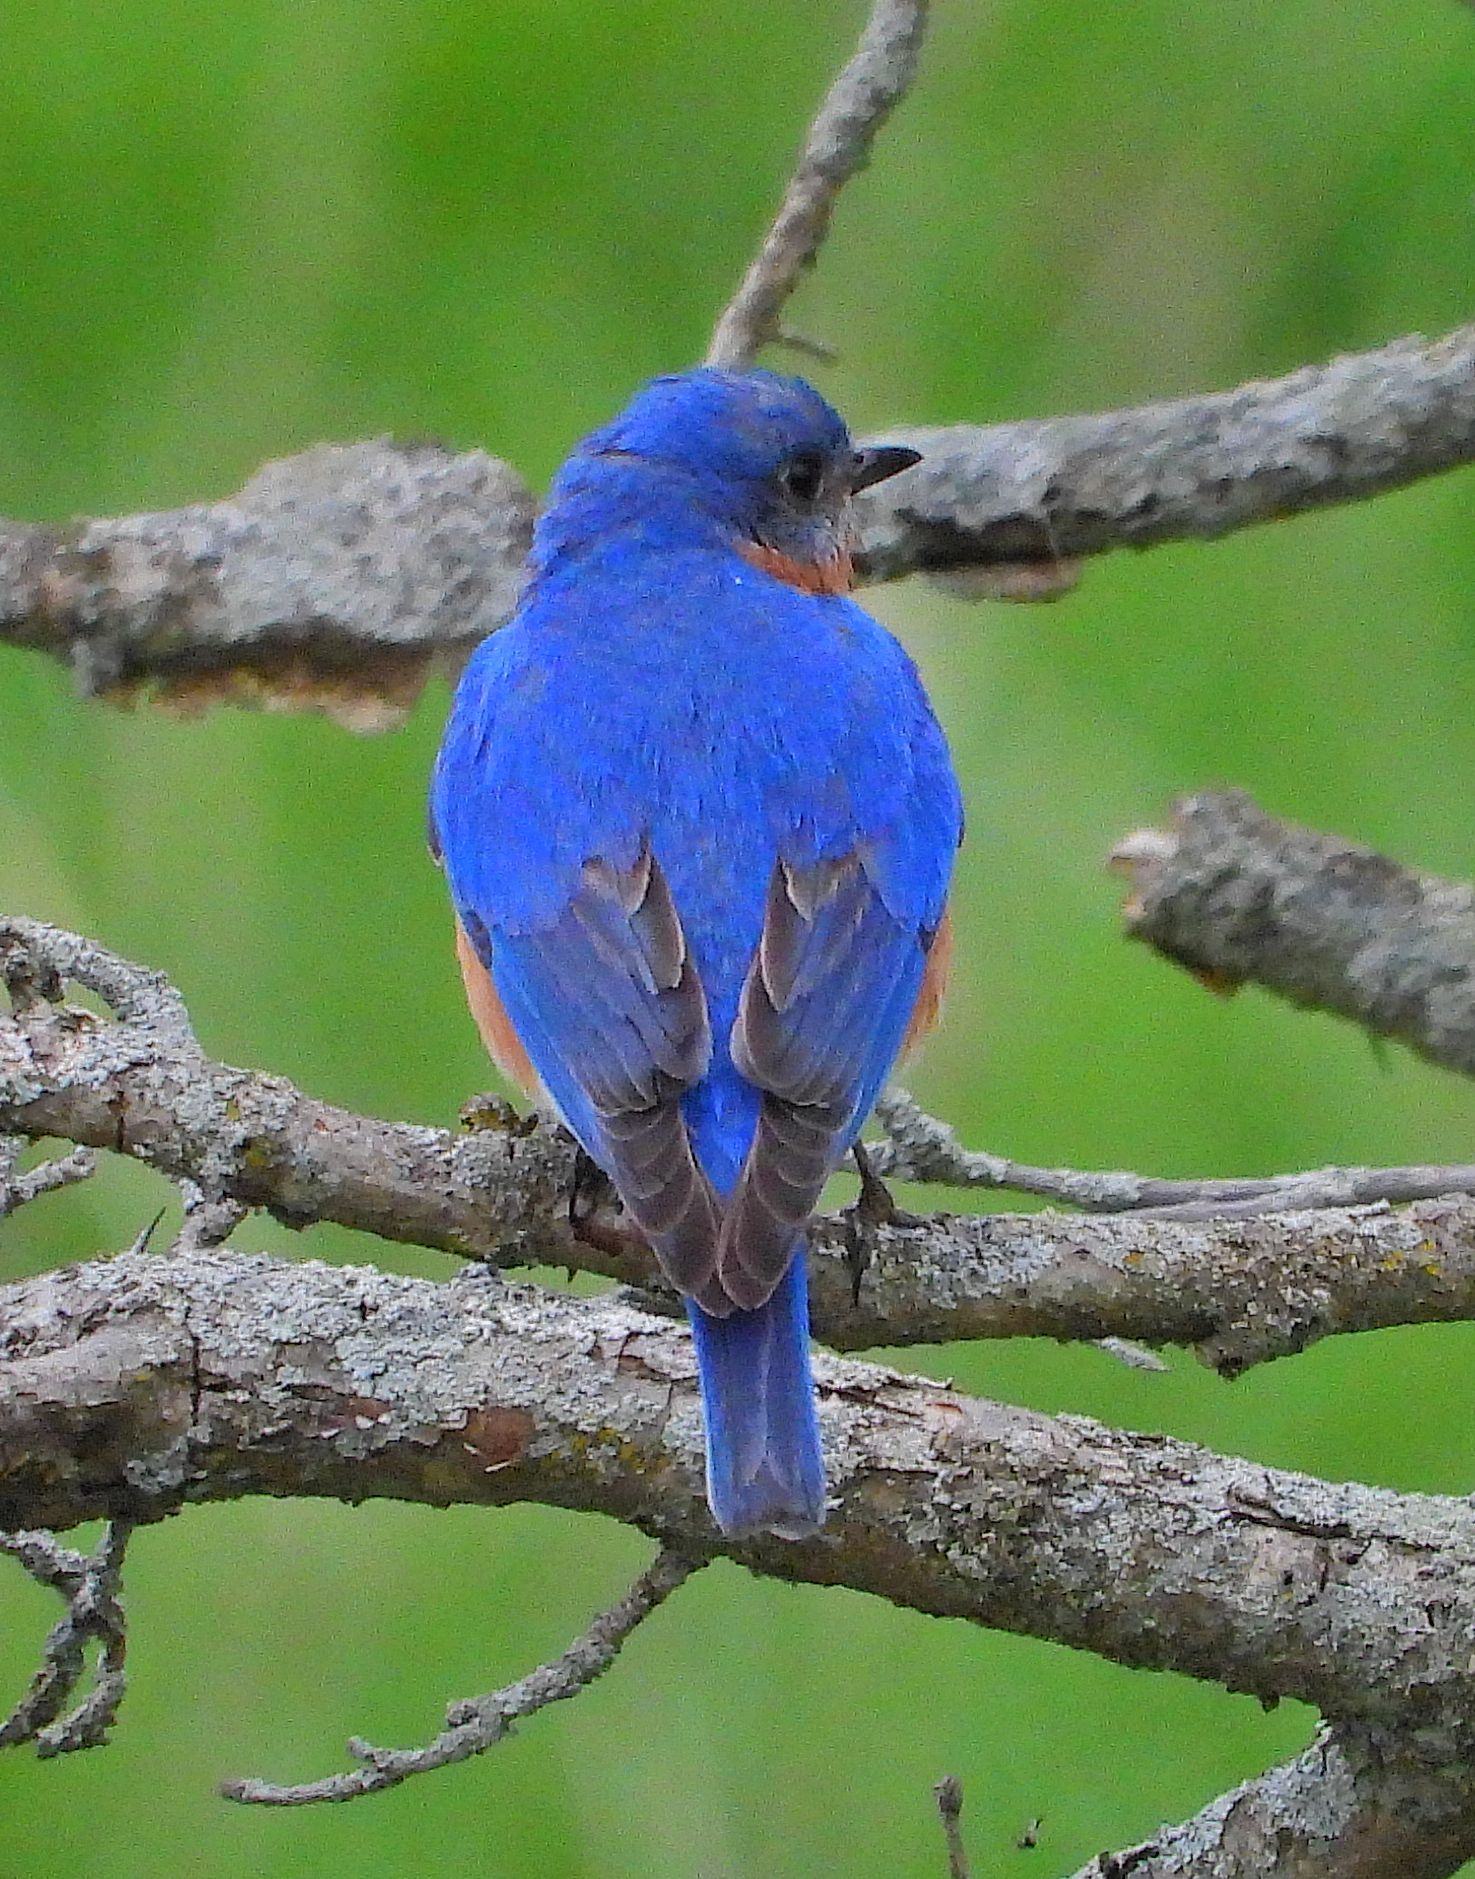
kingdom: Animalia
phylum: Chordata
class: Aves
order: Passeriformes
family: Turdidae
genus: Sialia
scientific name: Sialia sialis
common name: Eastern bluebird
